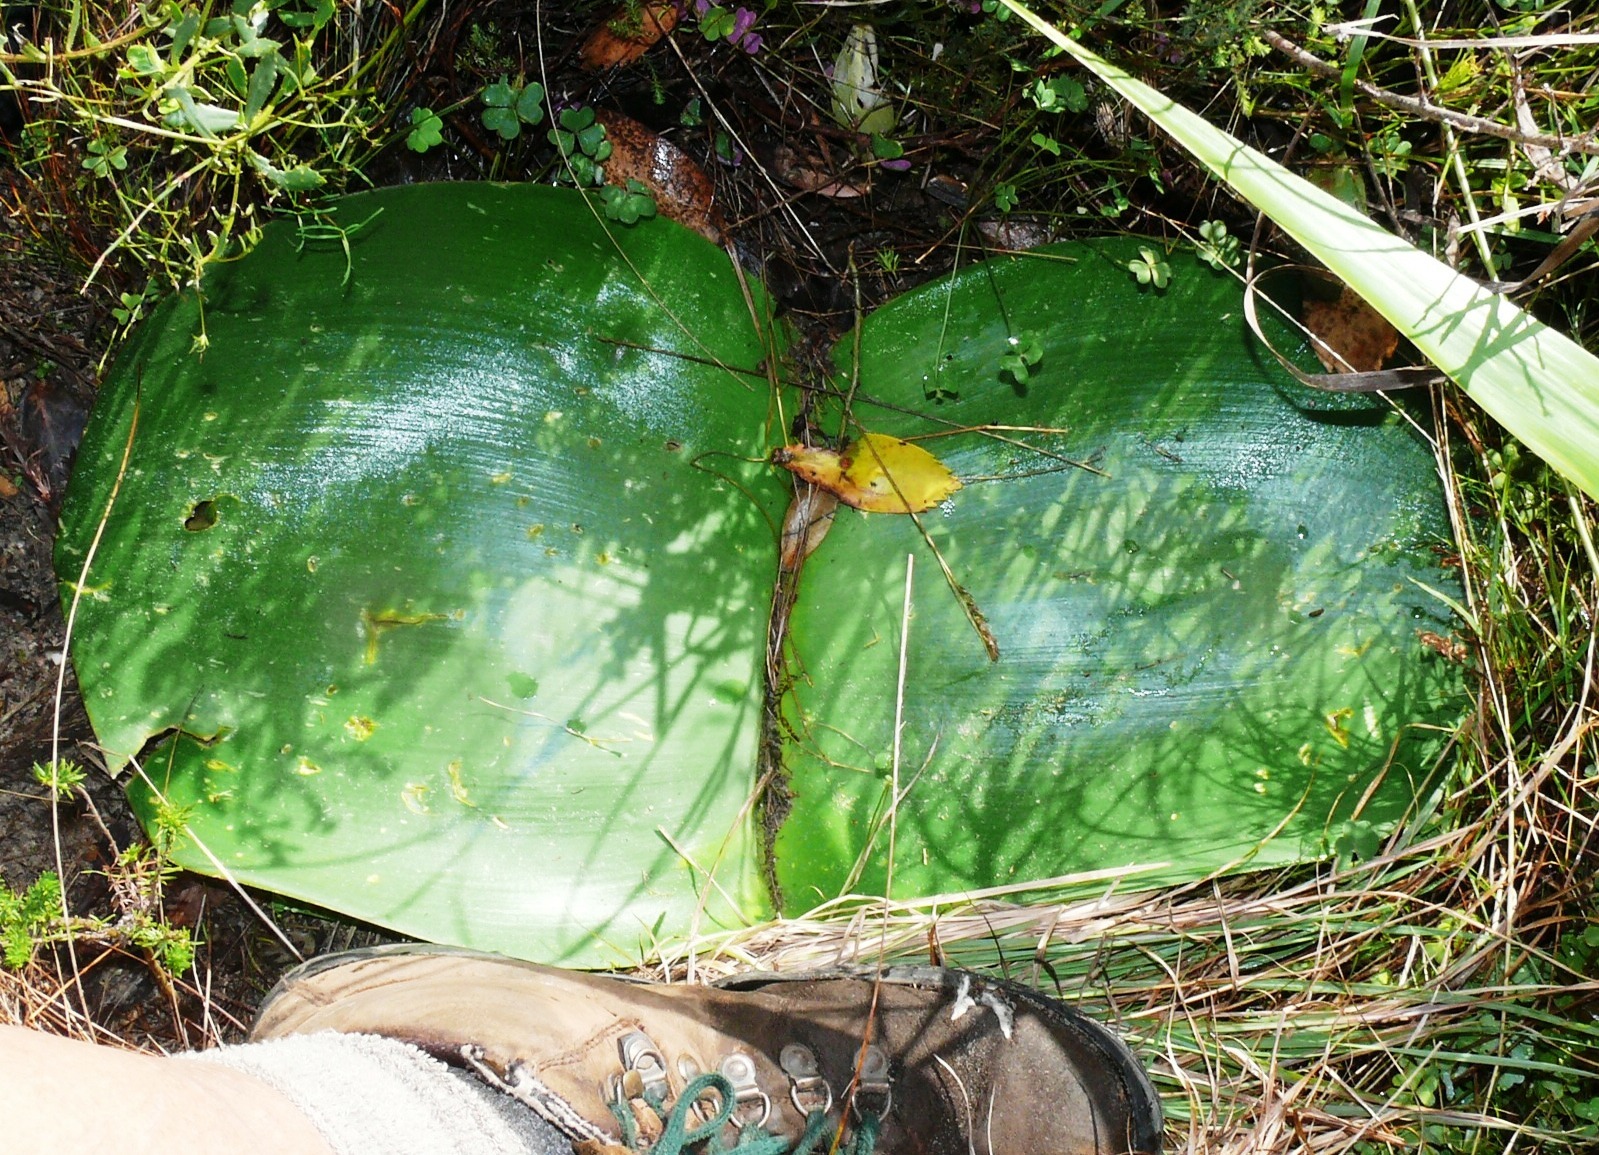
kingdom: Plantae
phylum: Tracheophyta
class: Liliopsida
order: Asparagales
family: Amaryllidaceae
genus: Haemanthus
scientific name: Haemanthus sanguineus
